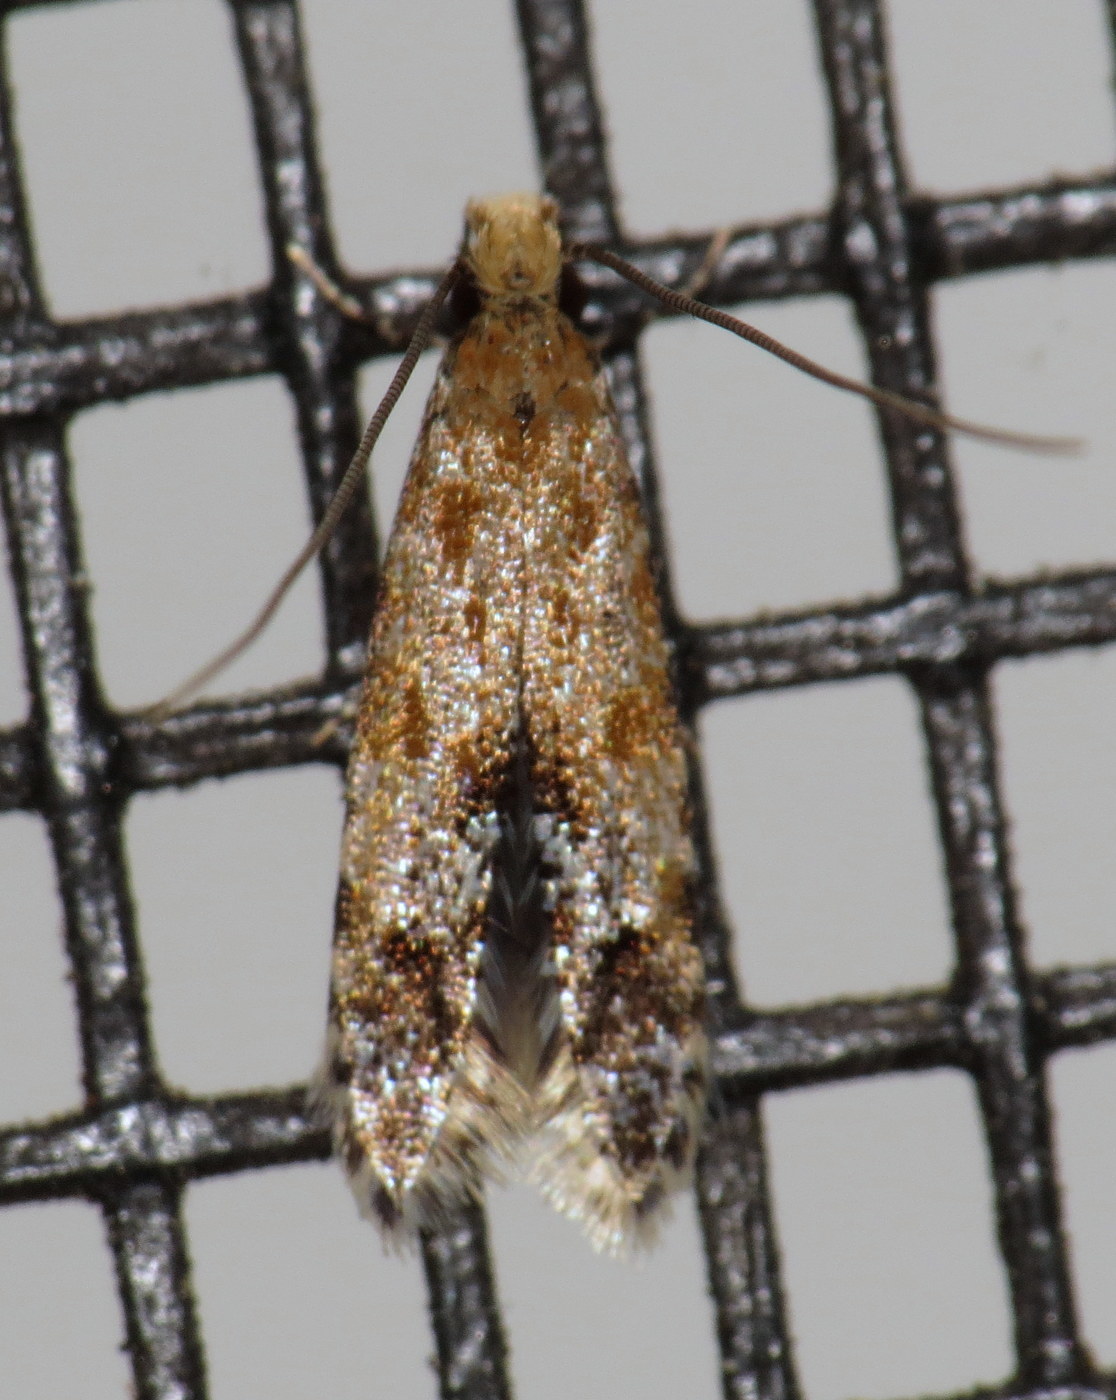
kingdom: Animalia
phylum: Arthropoda
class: Insecta
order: Lepidoptera
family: Meessiidae
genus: Homosetia
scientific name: Homosetia costisignella
